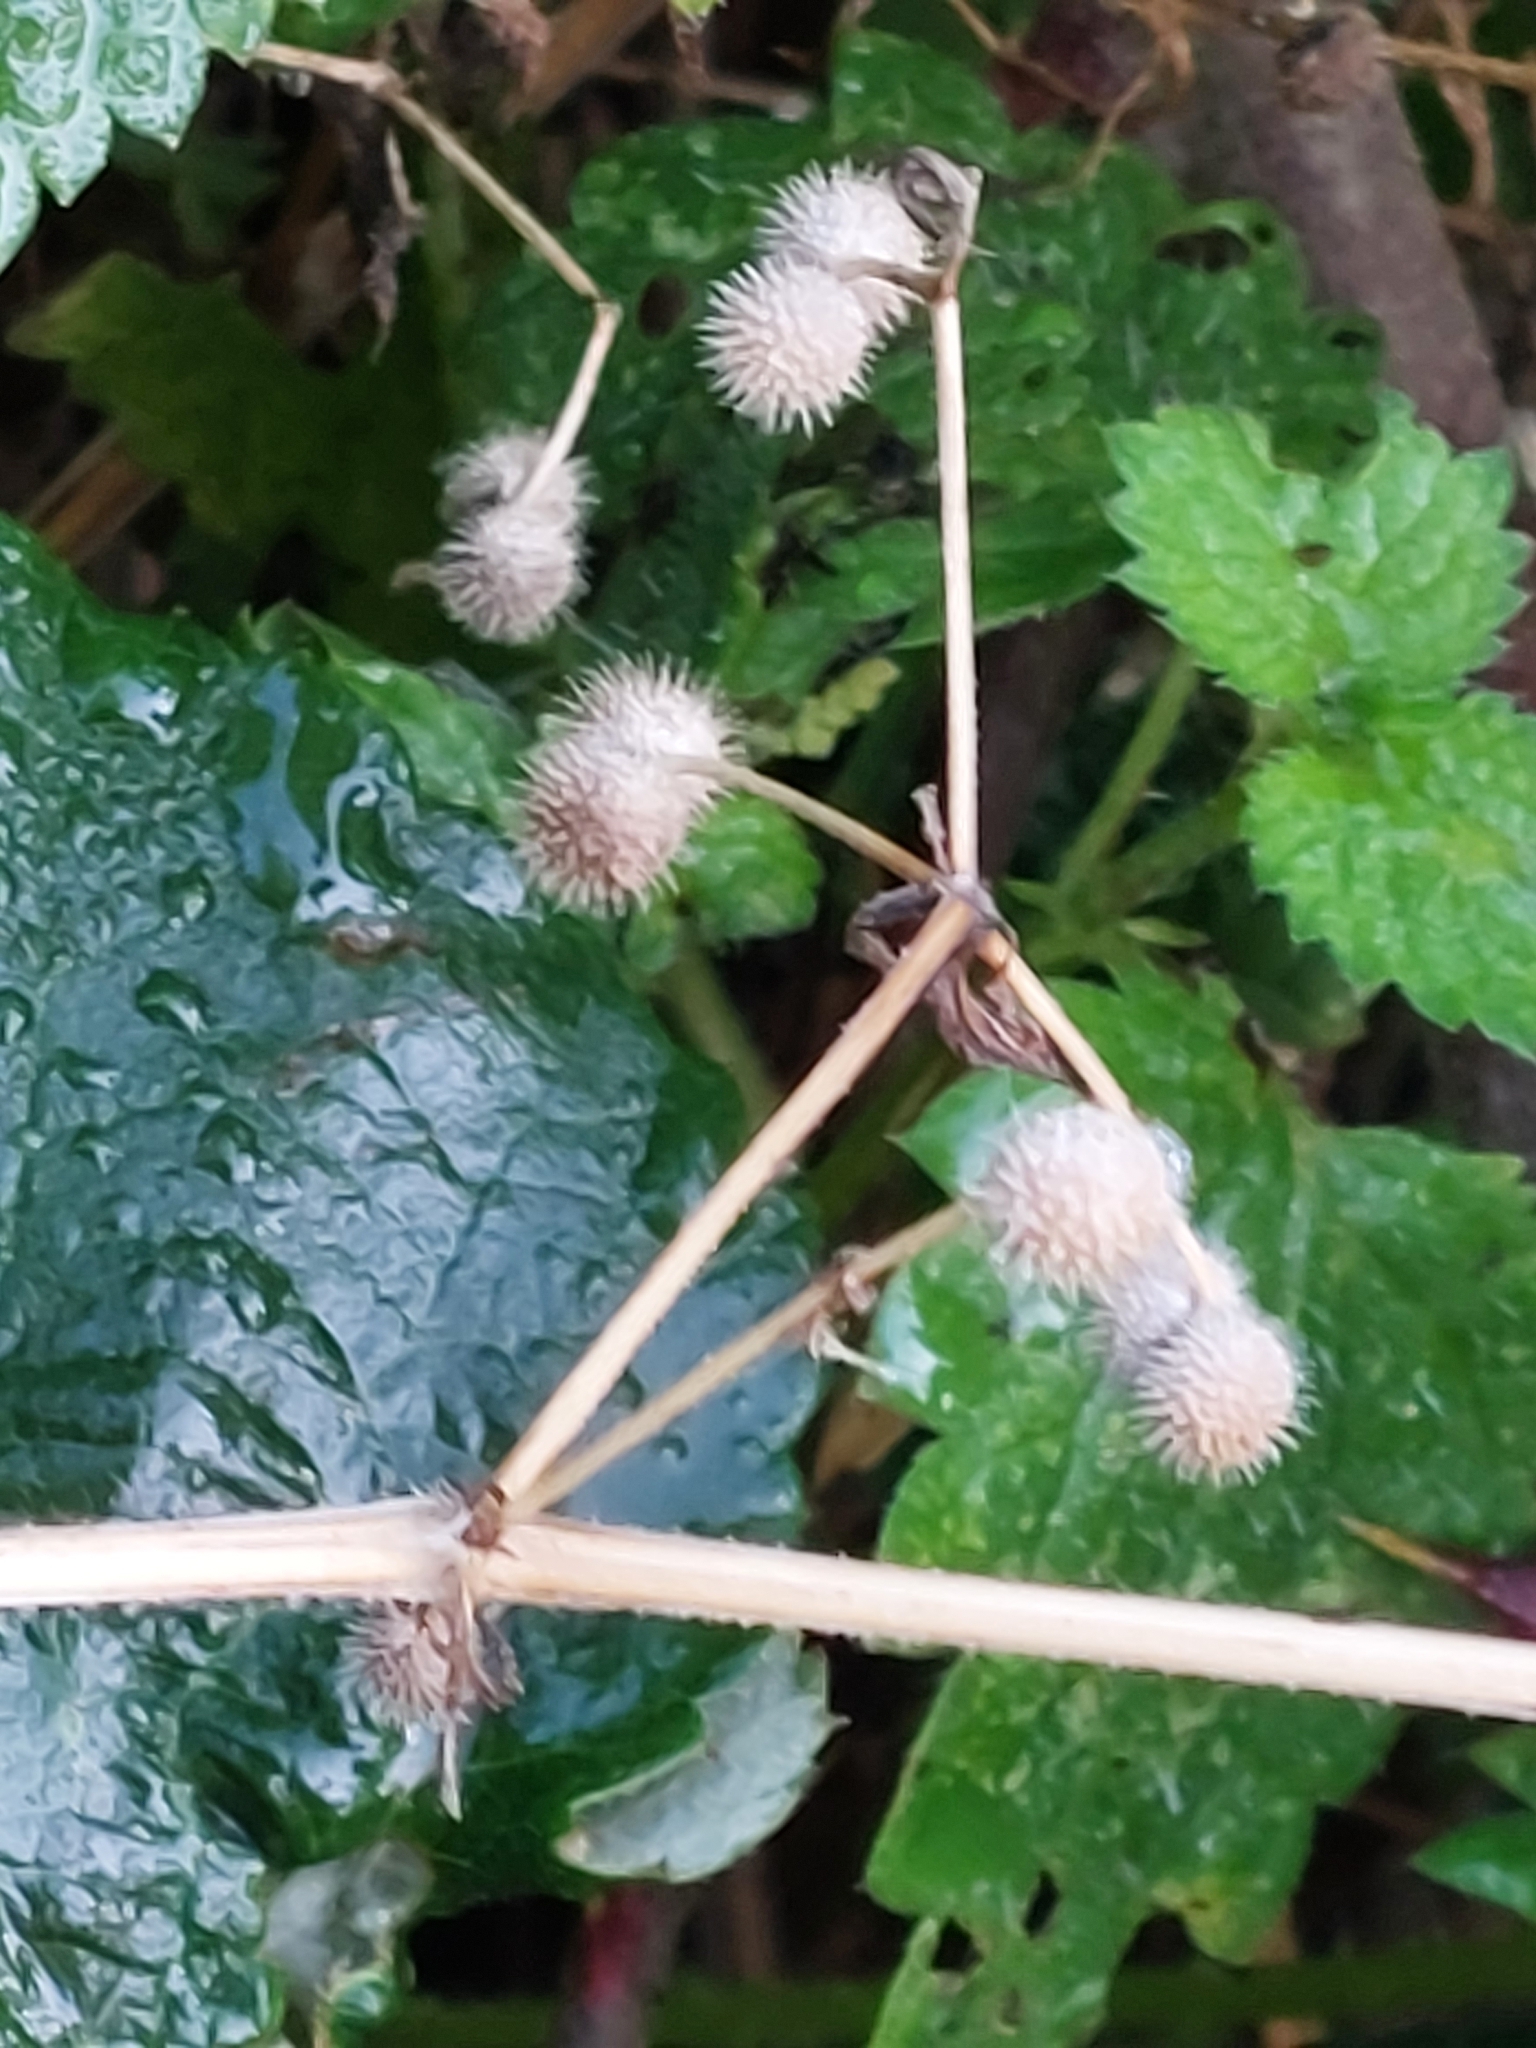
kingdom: Plantae
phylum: Tracheophyta
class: Magnoliopsida
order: Gentianales
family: Rubiaceae
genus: Galium
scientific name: Galium aparine
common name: Cleavers
